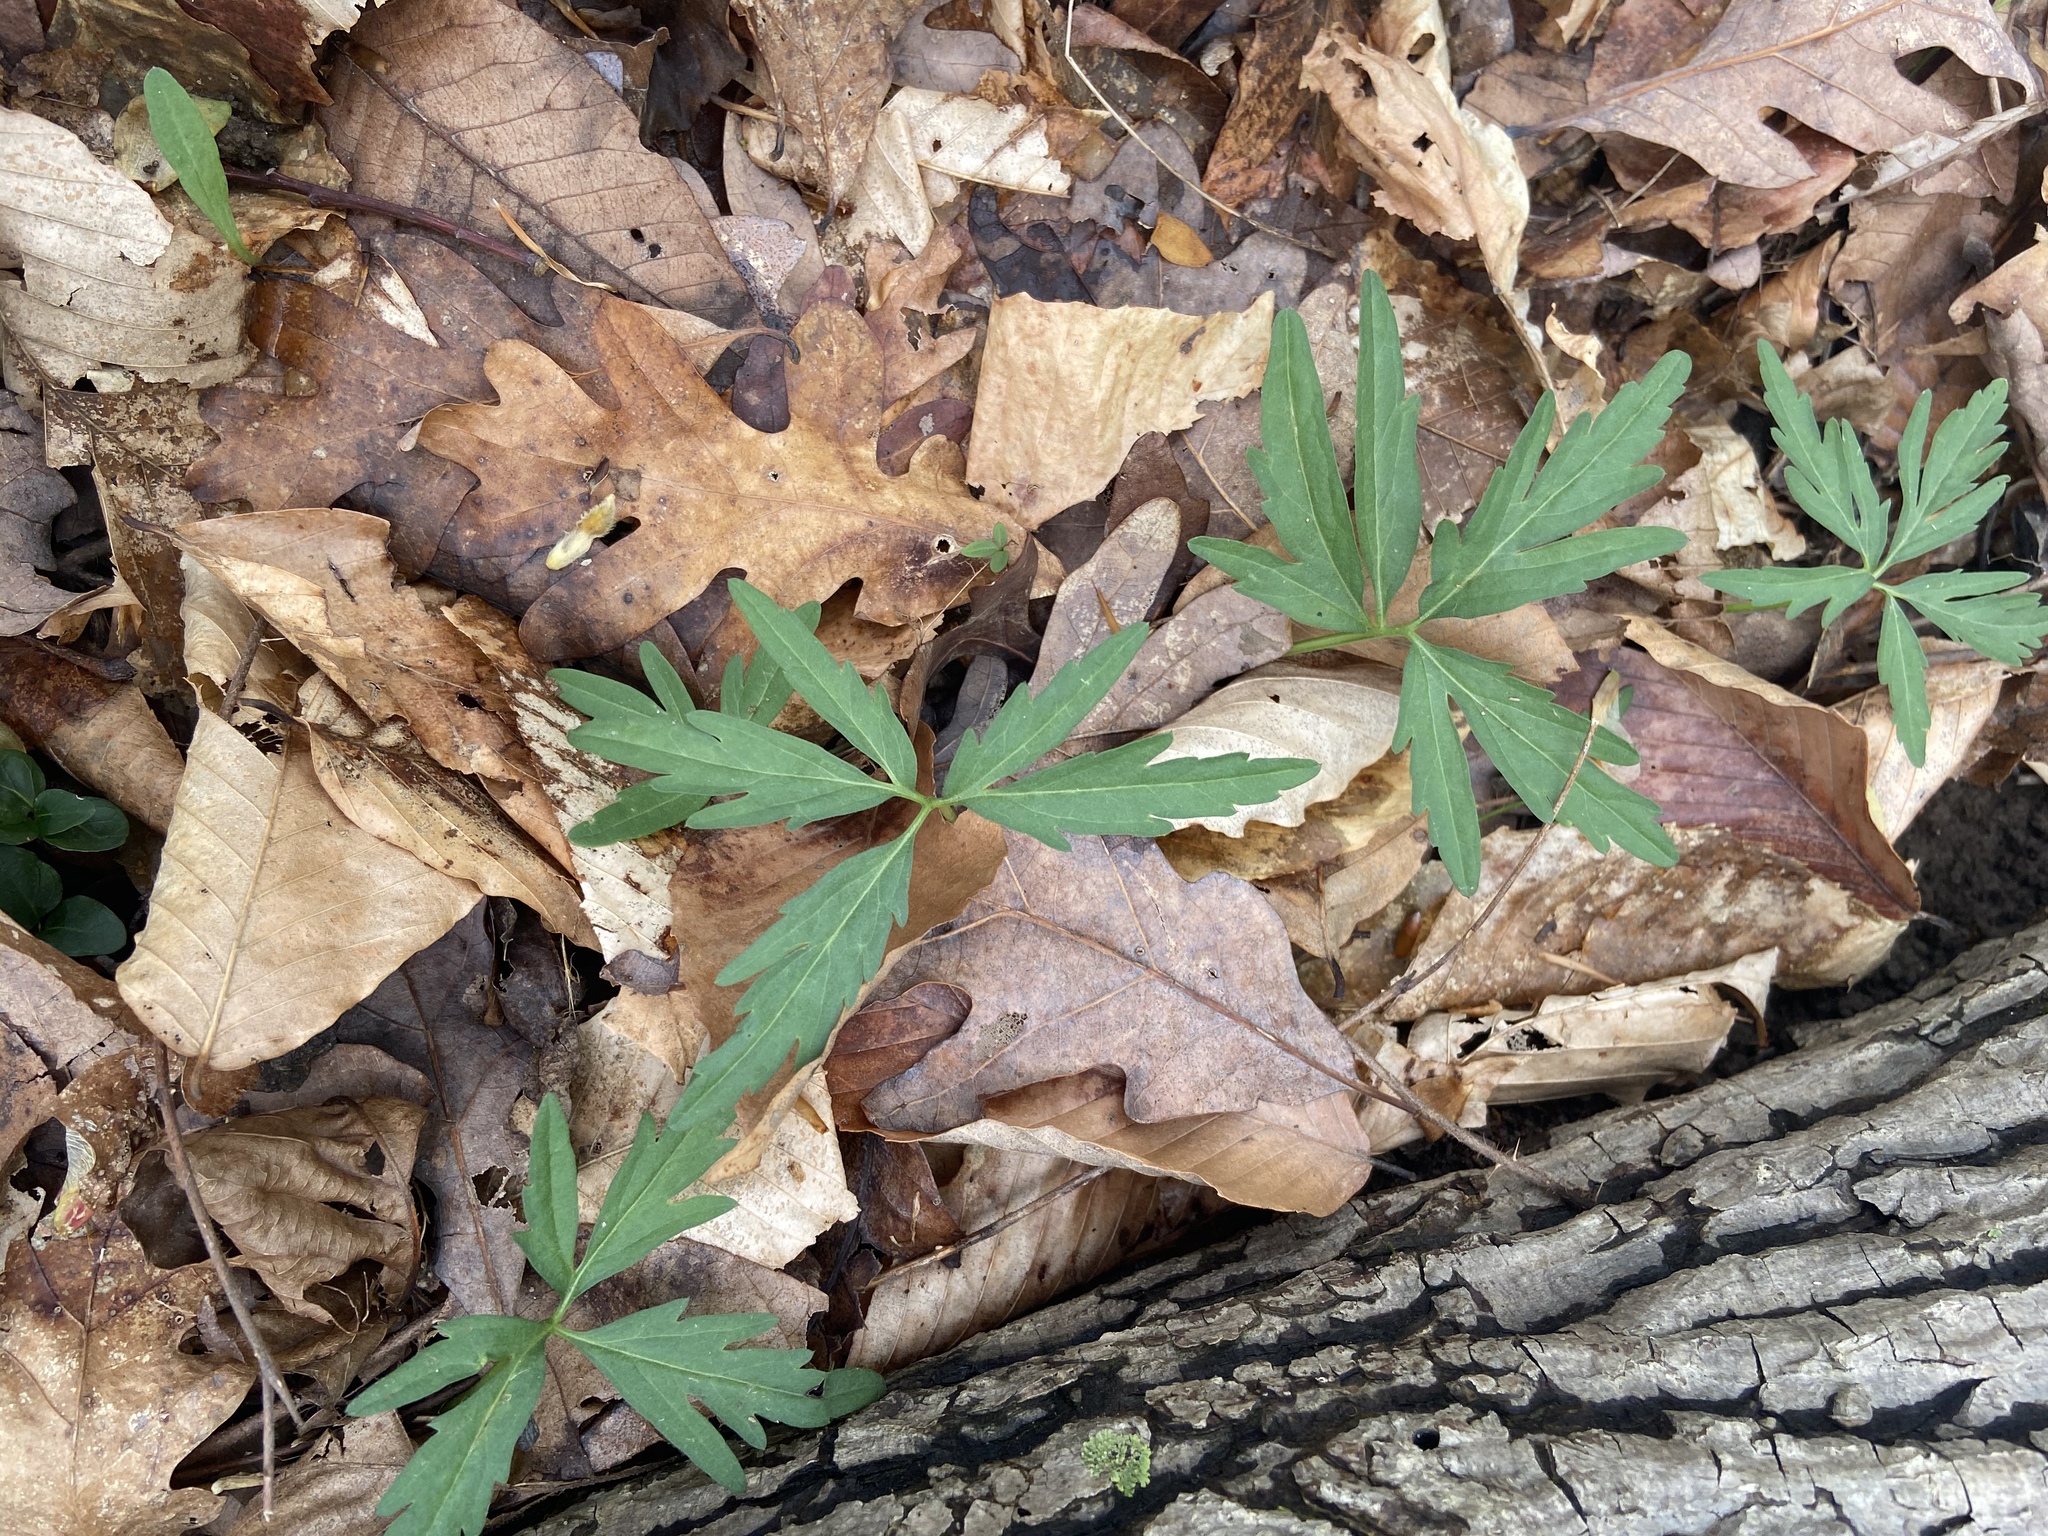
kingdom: Plantae
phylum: Tracheophyta
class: Magnoliopsida
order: Brassicales
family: Brassicaceae
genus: Cardamine
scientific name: Cardamine concatenata
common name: Cut-leaf toothcup
